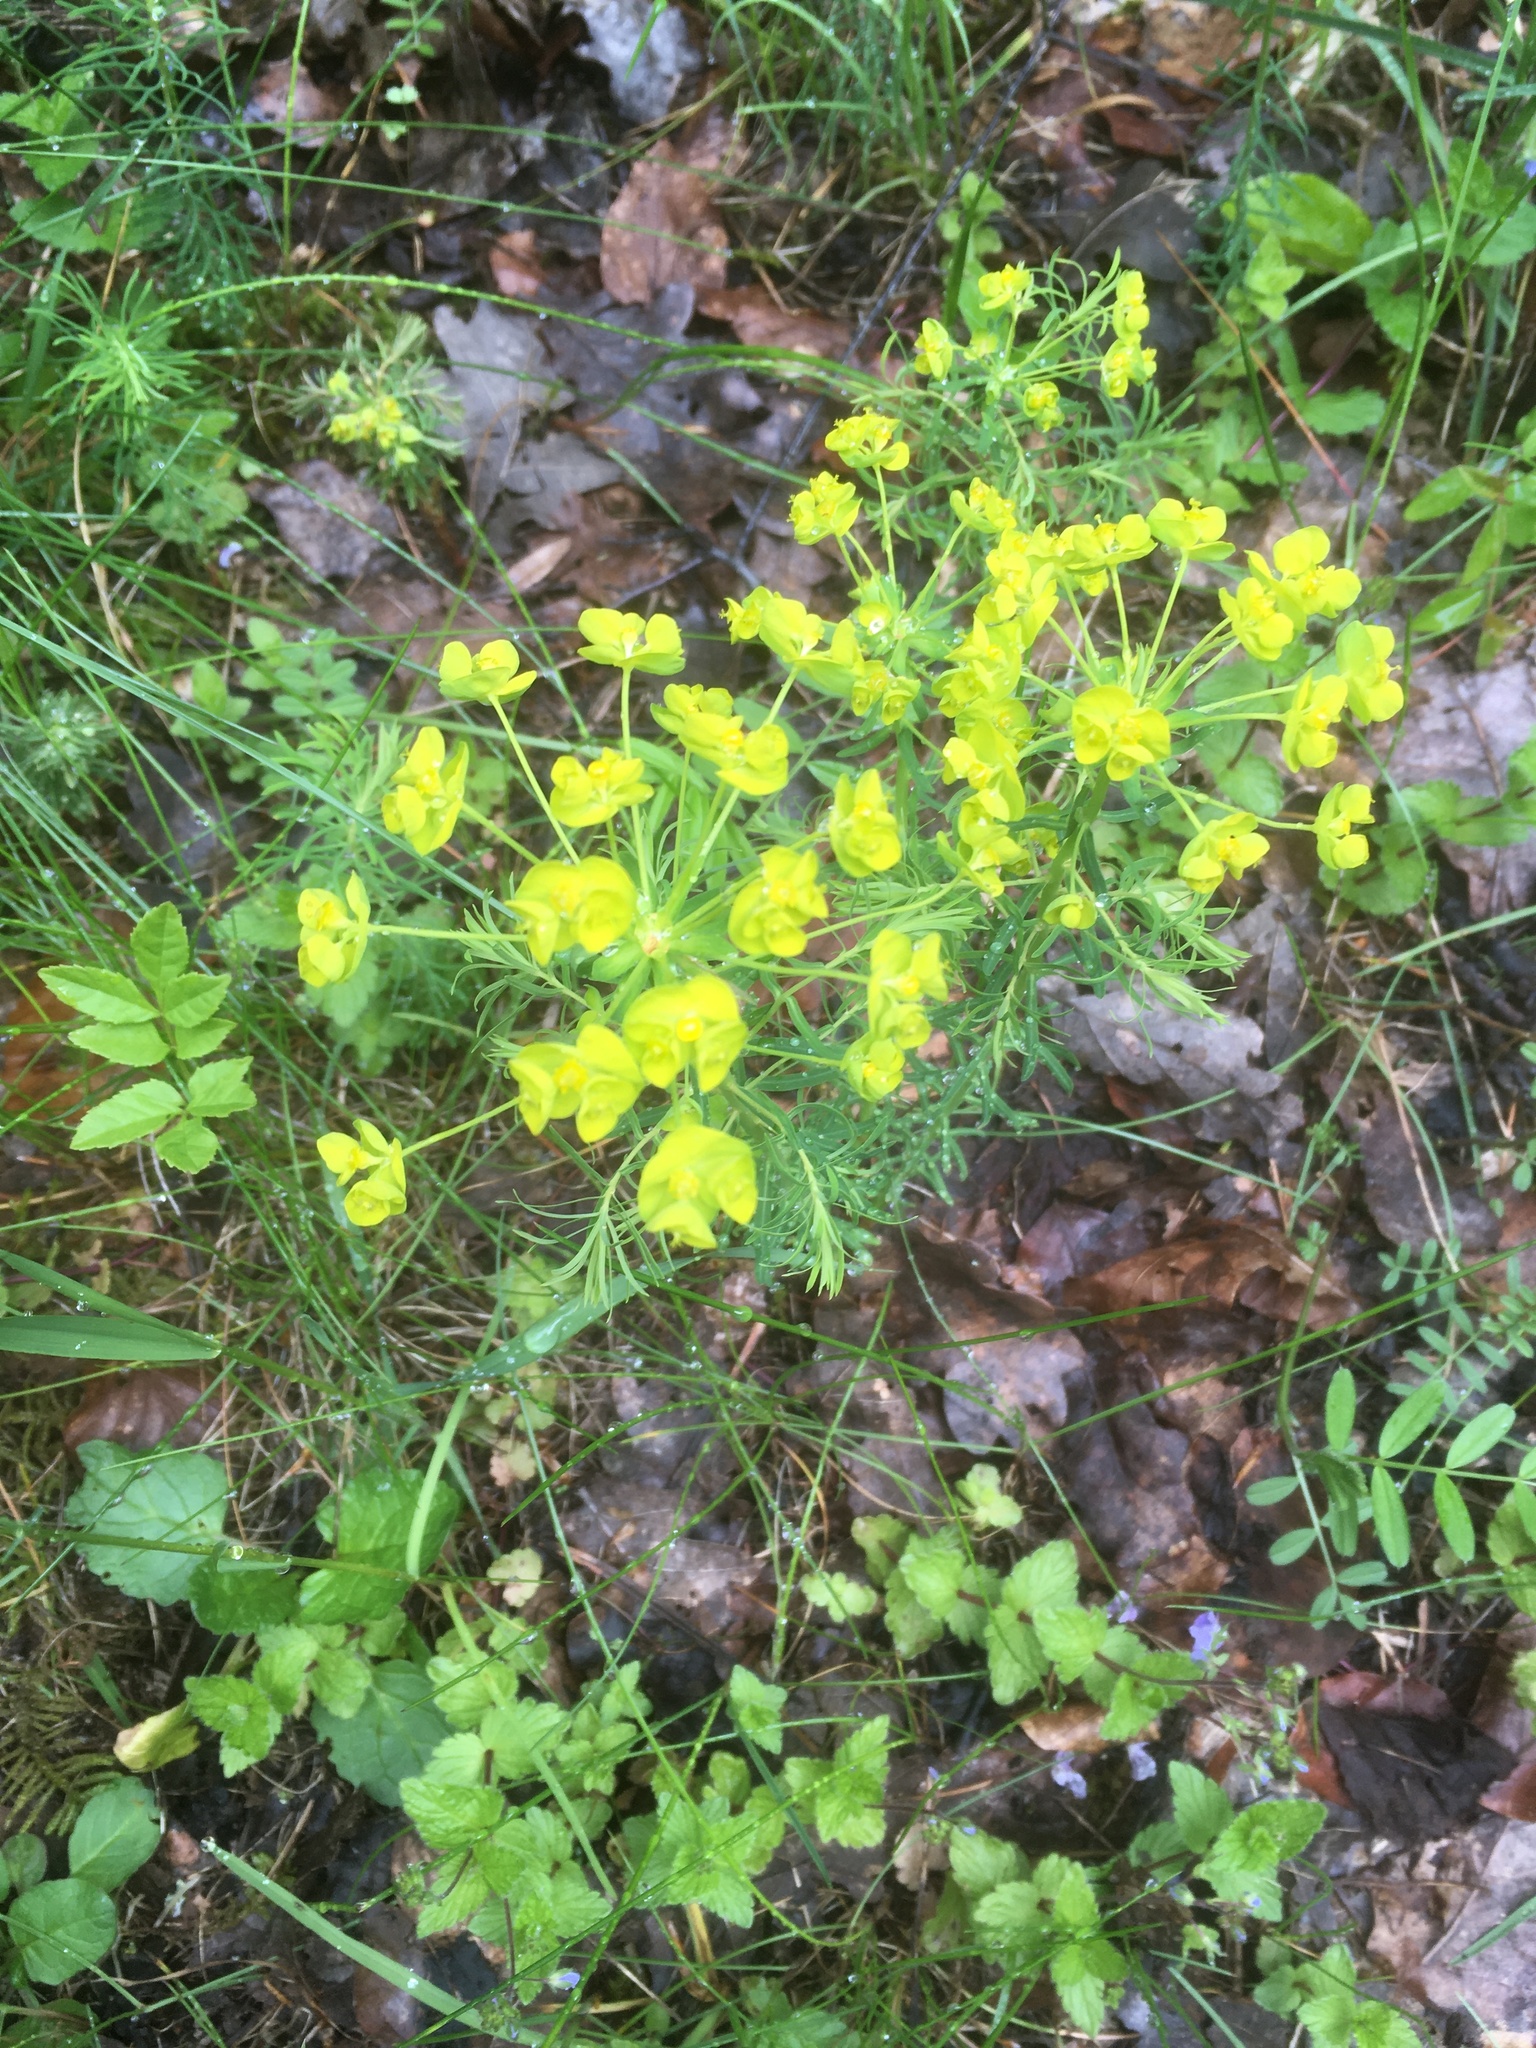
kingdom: Plantae
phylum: Tracheophyta
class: Magnoliopsida
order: Malpighiales
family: Euphorbiaceae
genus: Euphorbia
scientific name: Euphorbia cyparissias
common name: Cypress spurge
